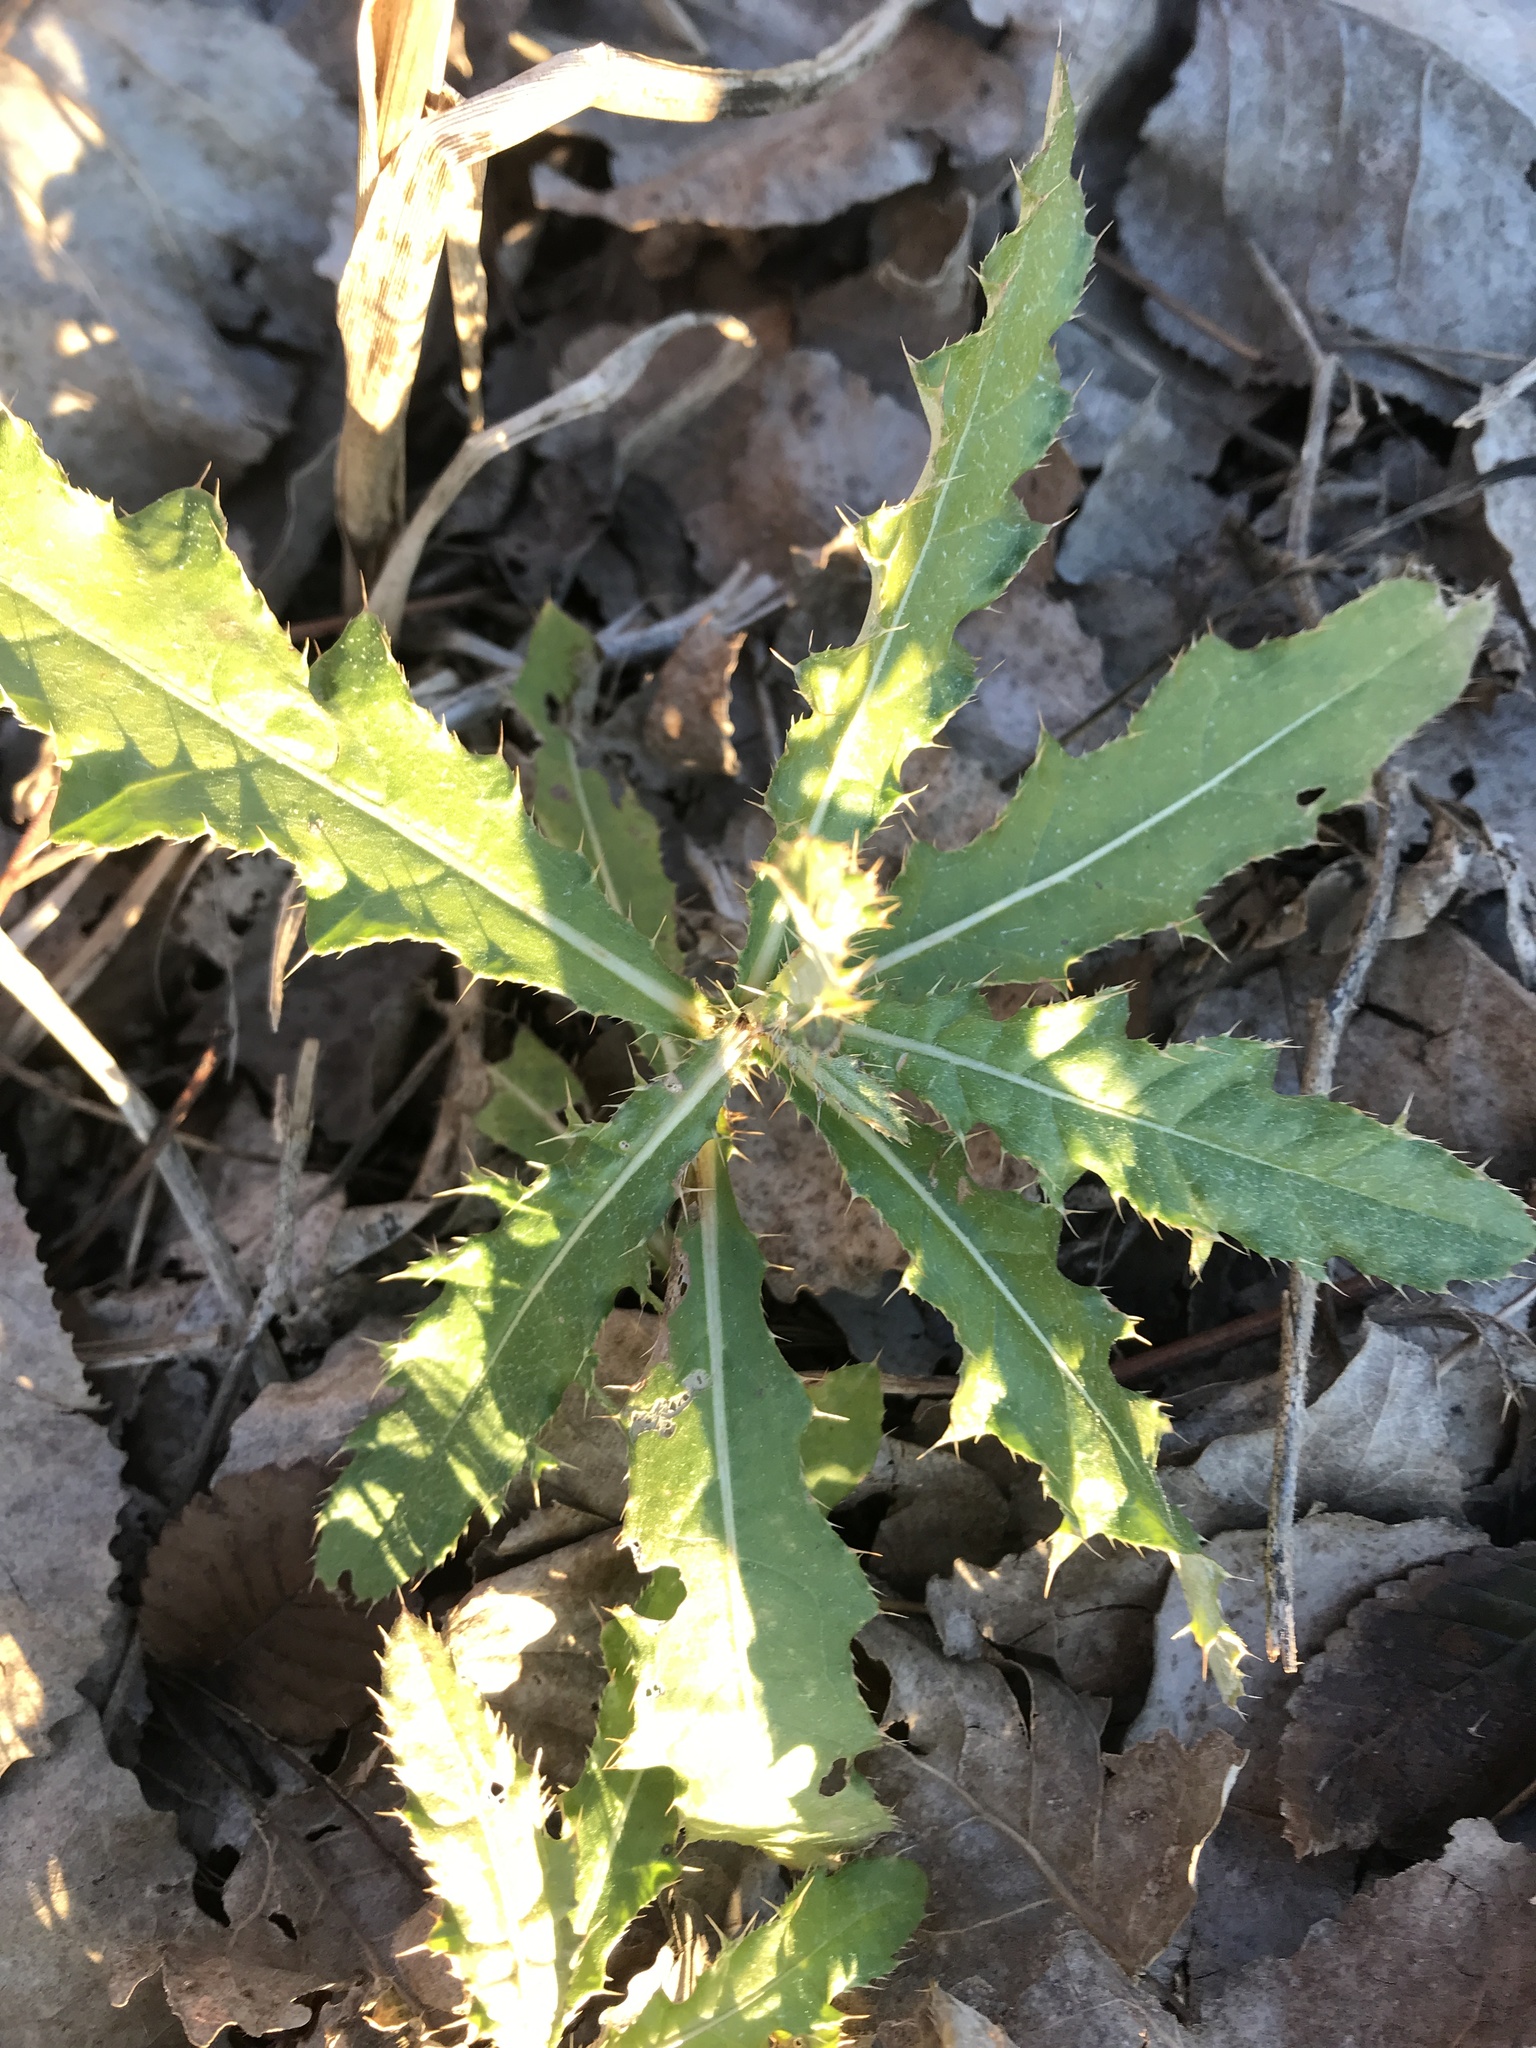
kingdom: Plantae
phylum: Tracheophyta
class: Magnoliopsida
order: Asterales
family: Asteraceae
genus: Cirsium
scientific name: Cirsium arvense
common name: Creeping thistle
